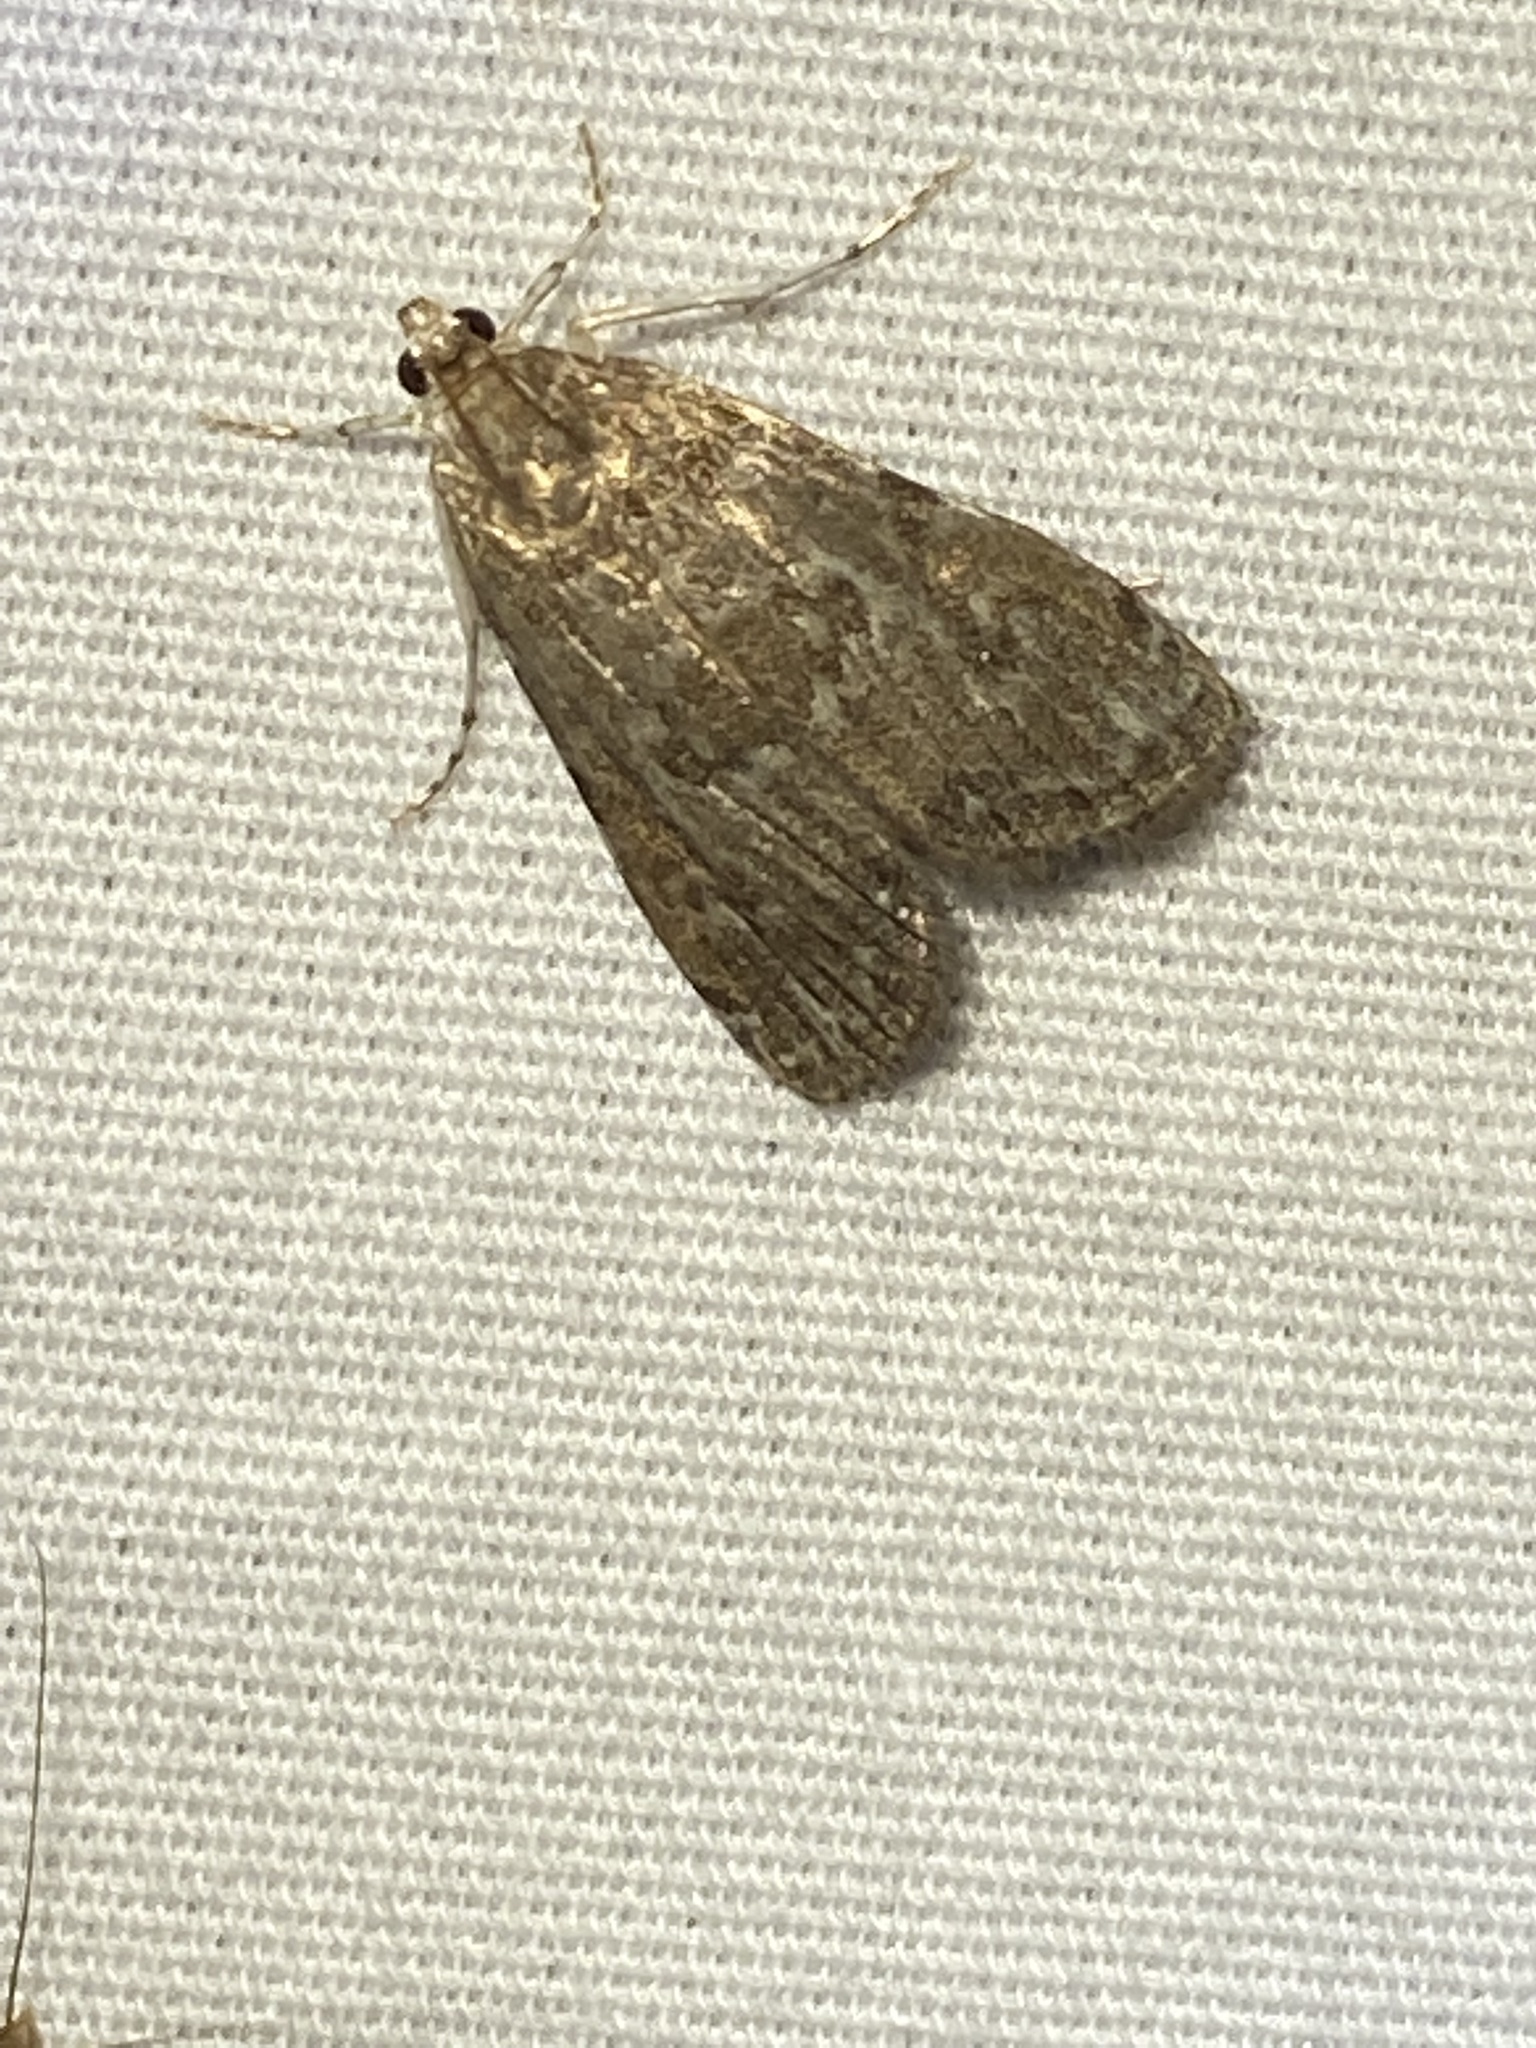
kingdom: Animalia
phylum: Arthropoda
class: Insecta
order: Lepidoptera
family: Crambidae
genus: Elophila
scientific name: Elophila gyralis
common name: Waterlily borer moth
